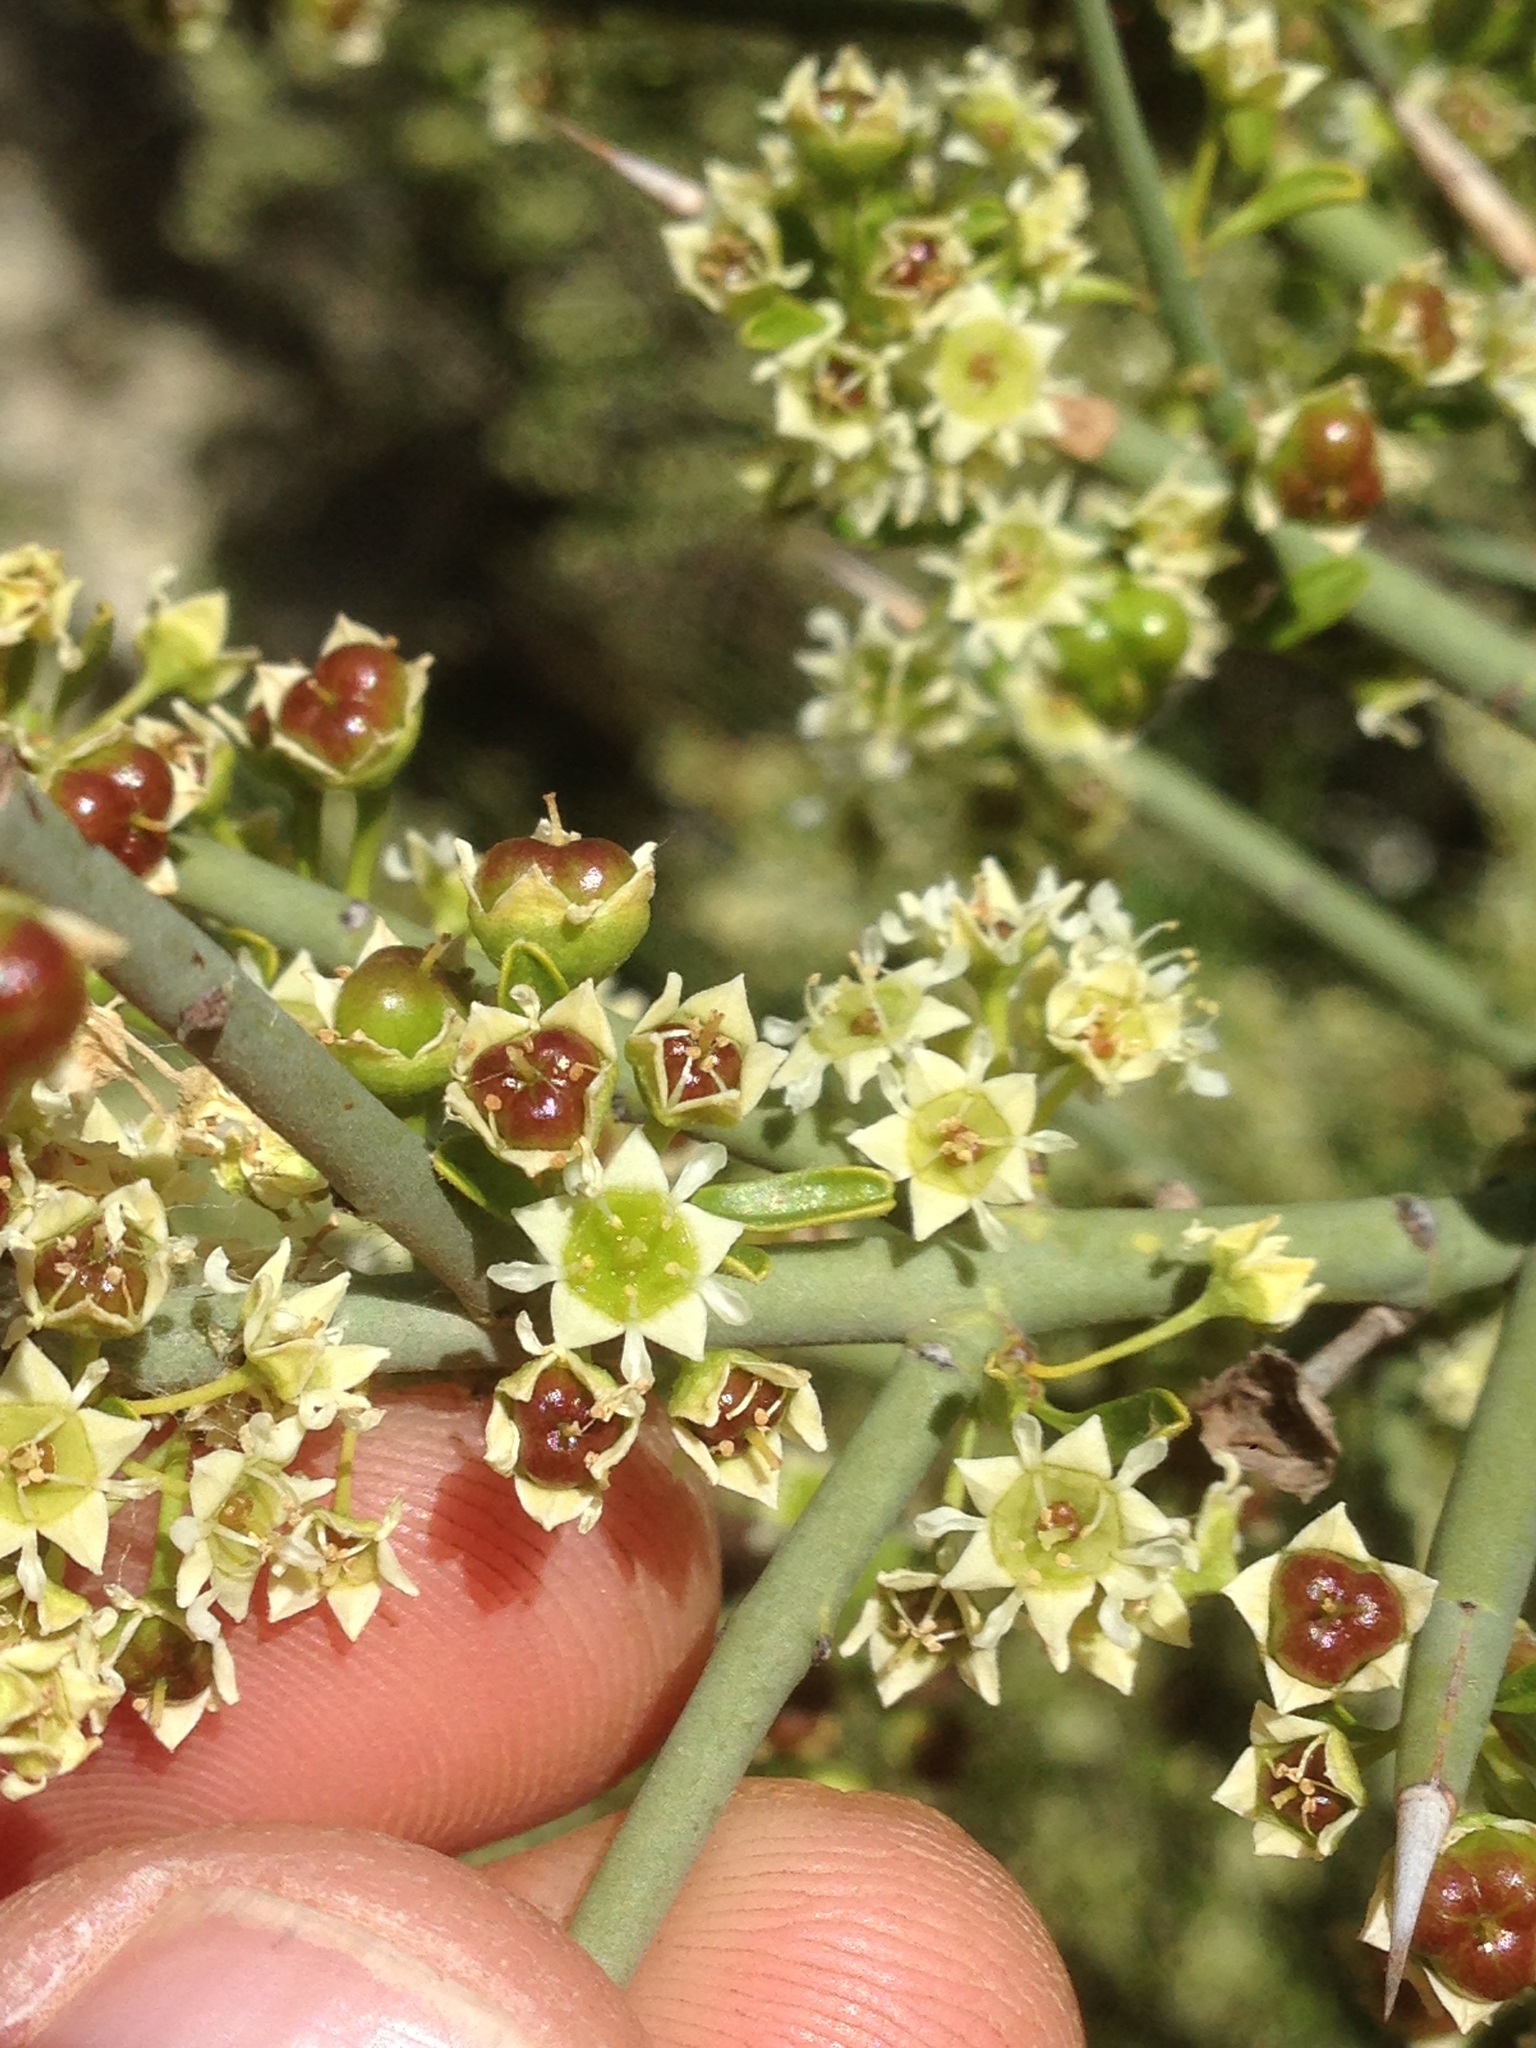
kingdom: Plantae
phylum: Tracheophyta
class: Magnoliopsida
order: Rosales
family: Rhamnaceae
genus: Adolphia
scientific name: Adolphia californica
